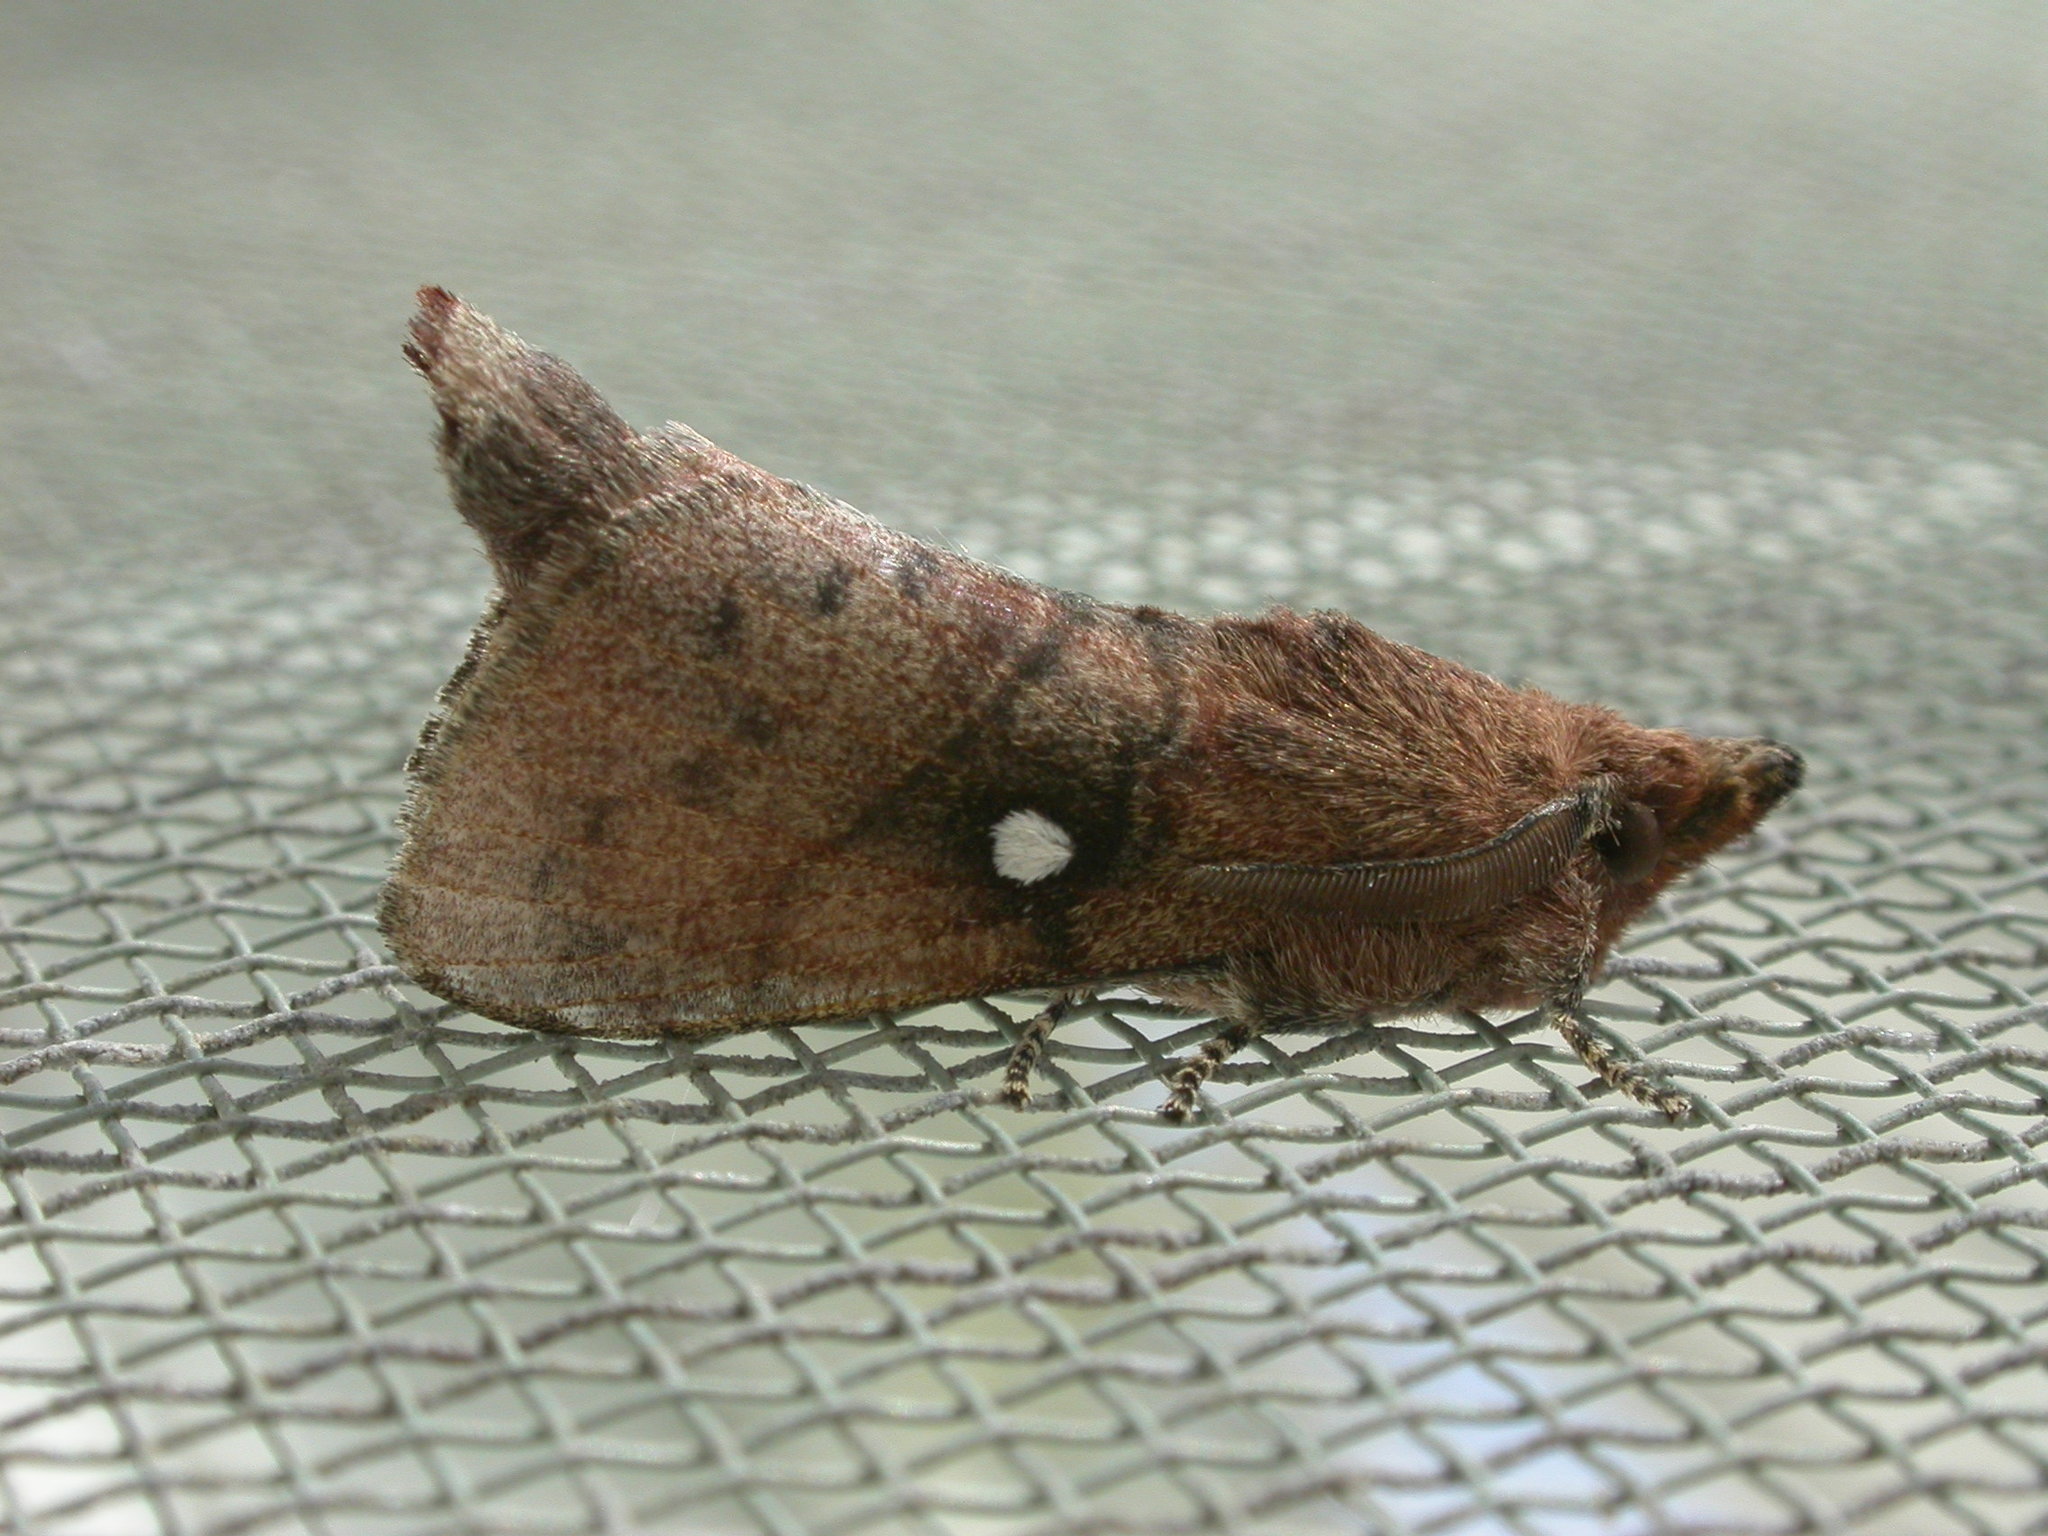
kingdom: Animalia
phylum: Arthropoda
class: Insecta
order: Lepidoptera
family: Lasiocampidae
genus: Opsirhina
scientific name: Opsirhina lechriodes
